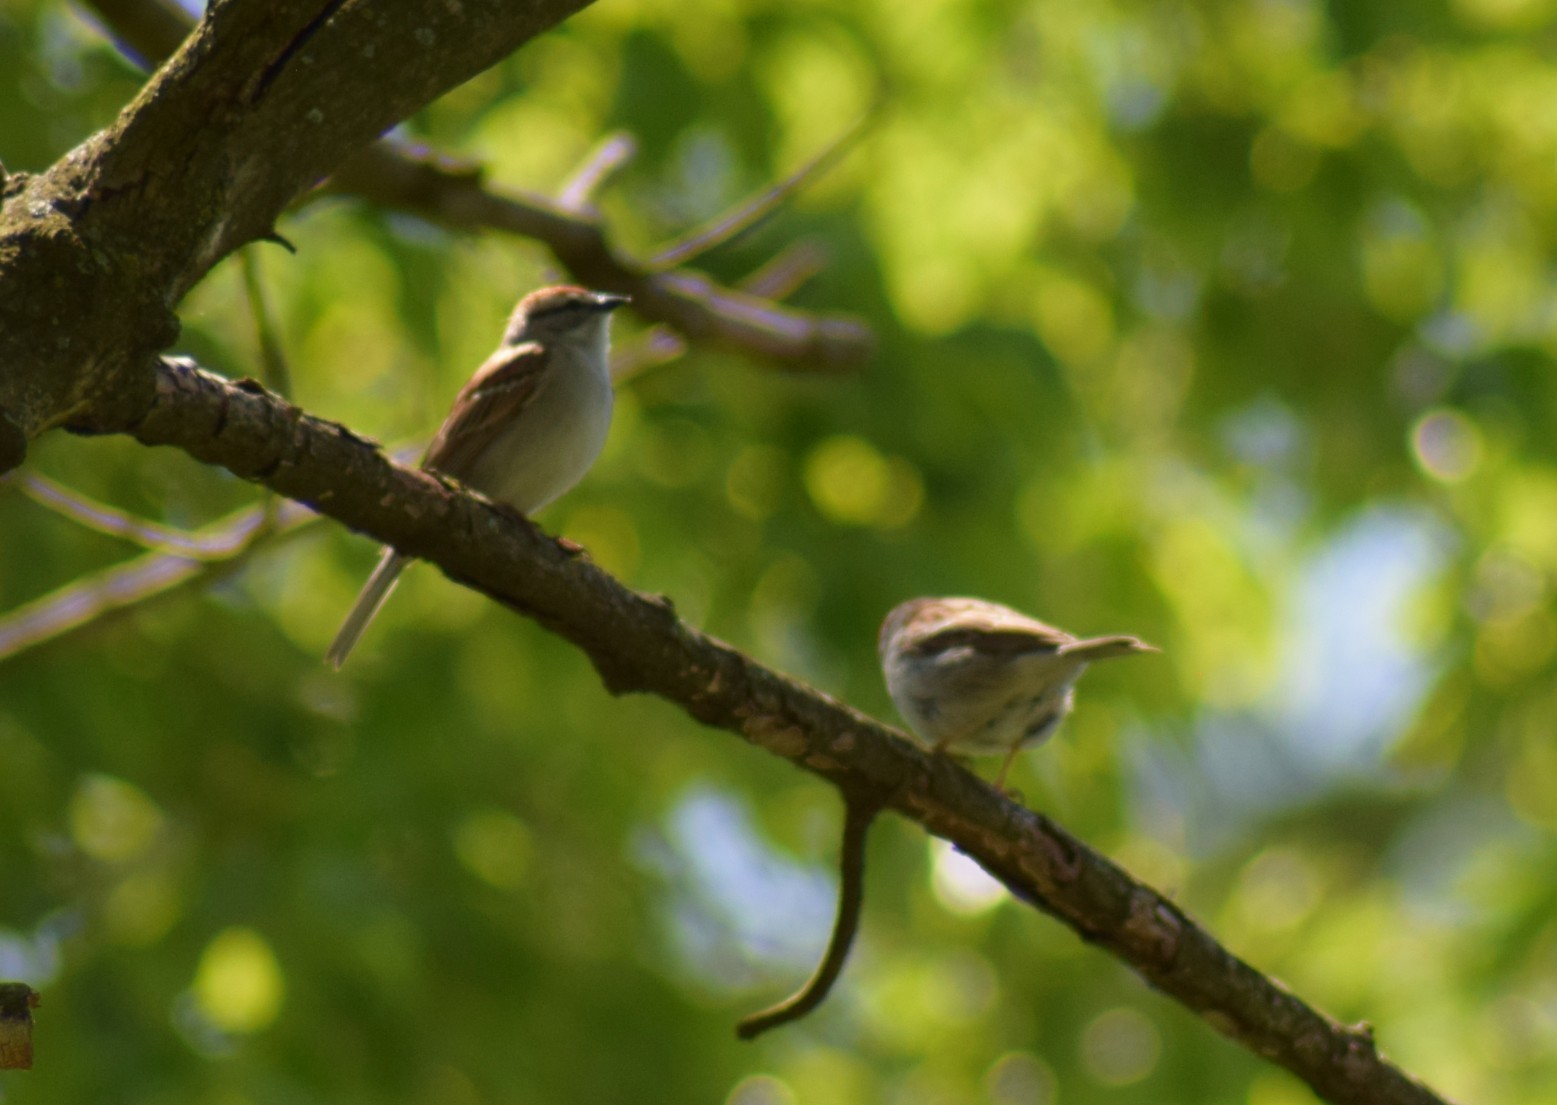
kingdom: Animalia
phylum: Chordata
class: Aves
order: Passeriformes
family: Passerellidae
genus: Spizella
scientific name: Spizella passerina
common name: Chipping sparrow
